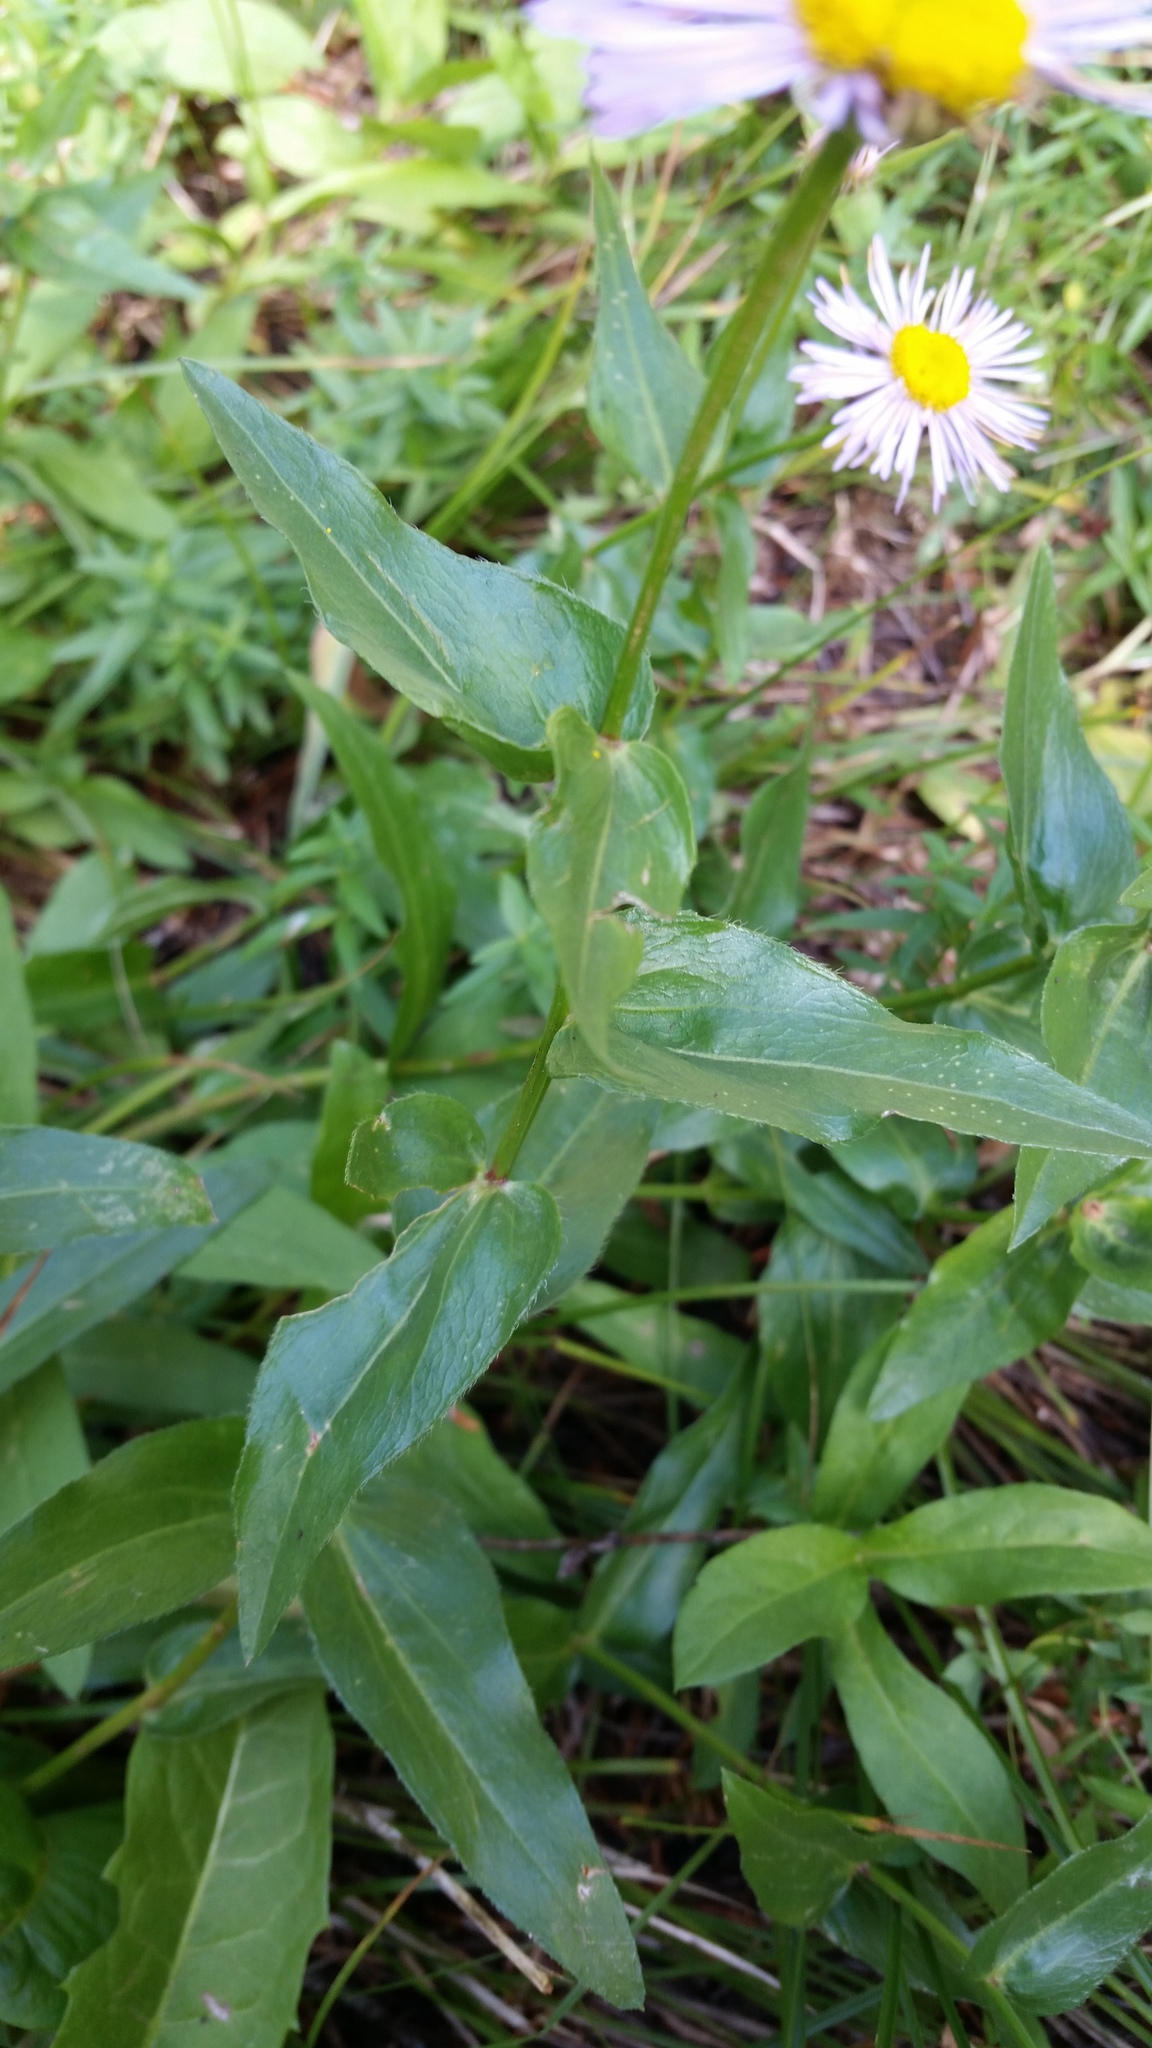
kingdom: Plantae
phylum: Tracheophyta
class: Magnoliopsida
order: Asterales
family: Asteraceae
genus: Erigeron
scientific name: Erigeron speciosus
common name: Aspen fleabane
